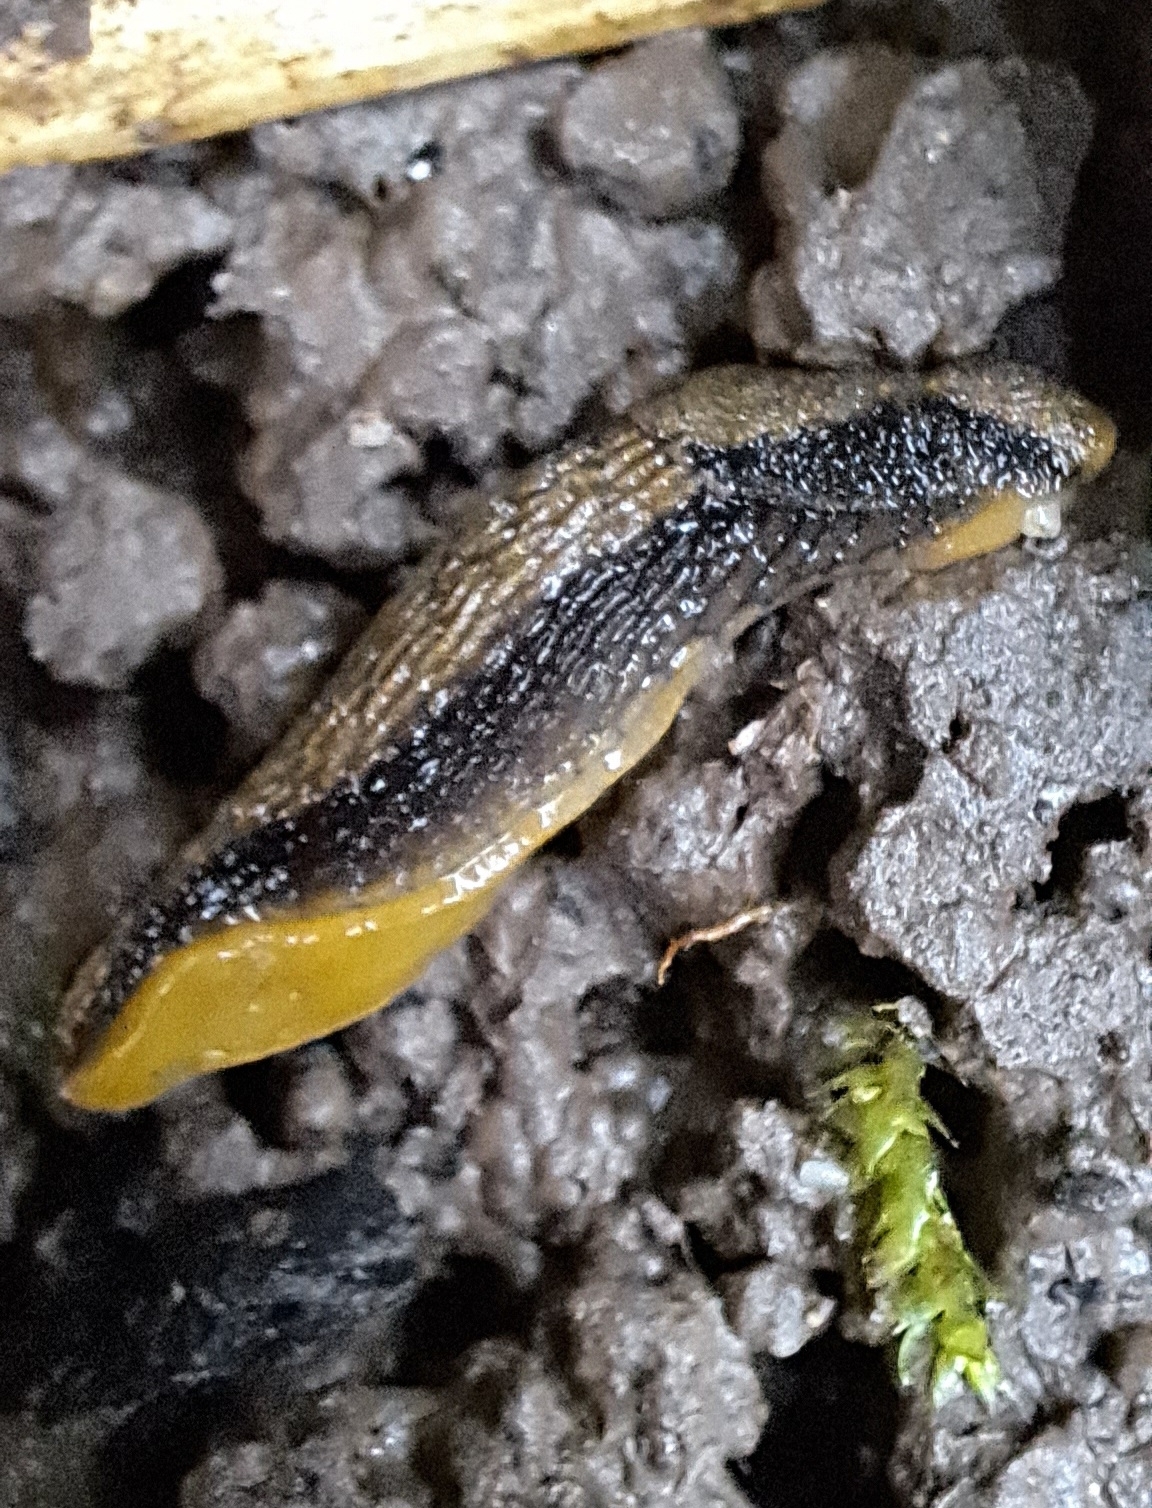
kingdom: Animalia
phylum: Mollusca
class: Gastropoda
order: Stylommatophora
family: Arionidae
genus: Arion
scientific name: Arion distinctus
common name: Darkface arion
